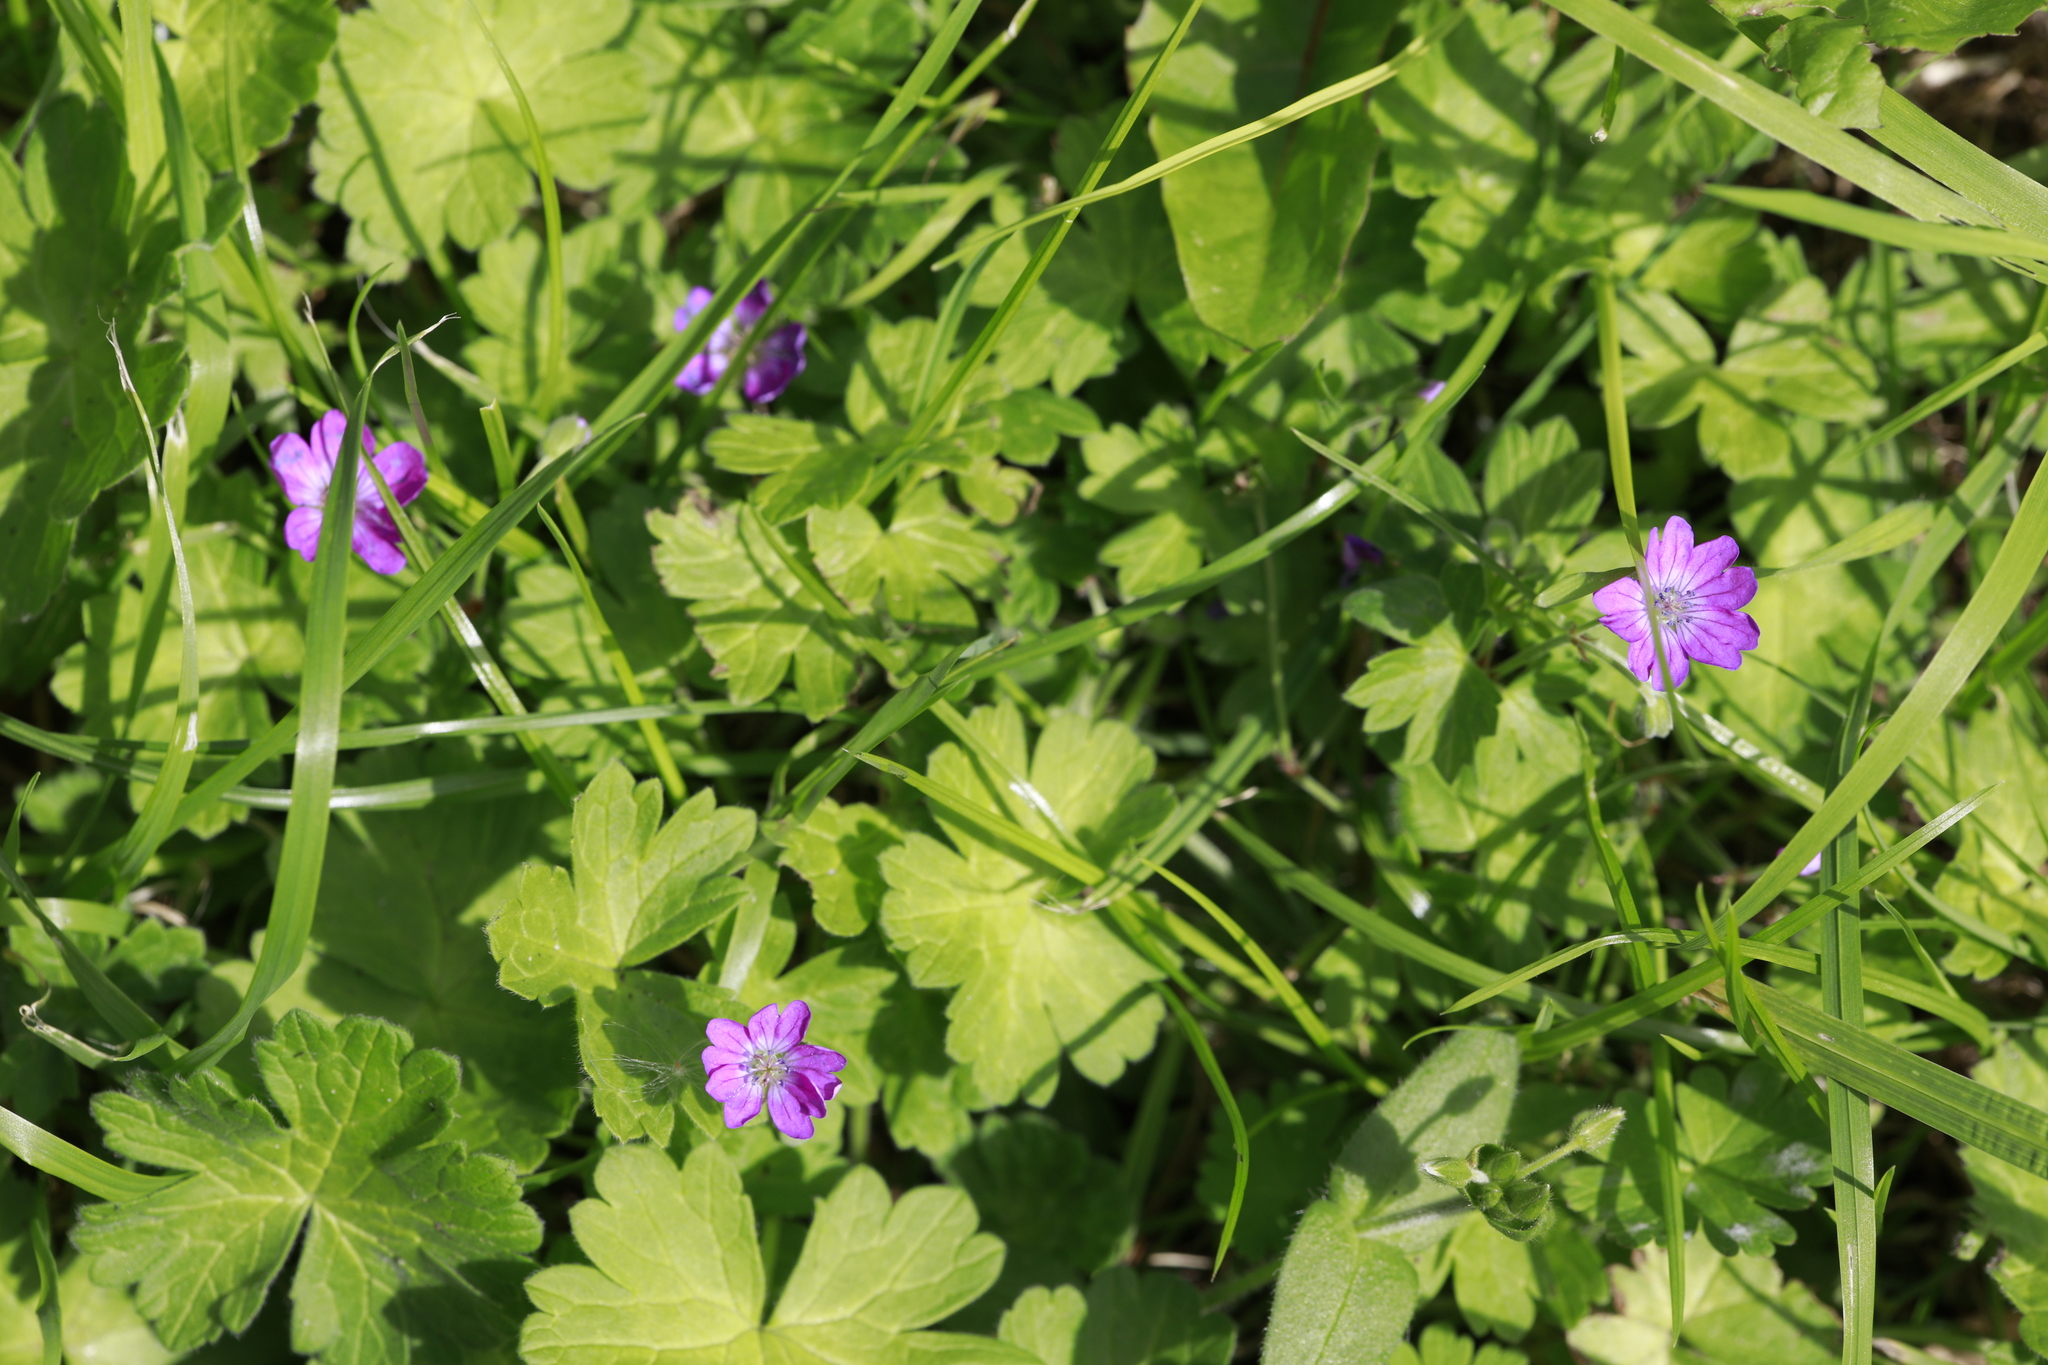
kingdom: Plantae
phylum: Tracheophyta
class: Magnoliopsida
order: Geraniales
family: Geraniaceae
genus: Geranium
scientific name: Geranium molle
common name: Dove's-foot crane's-bill
